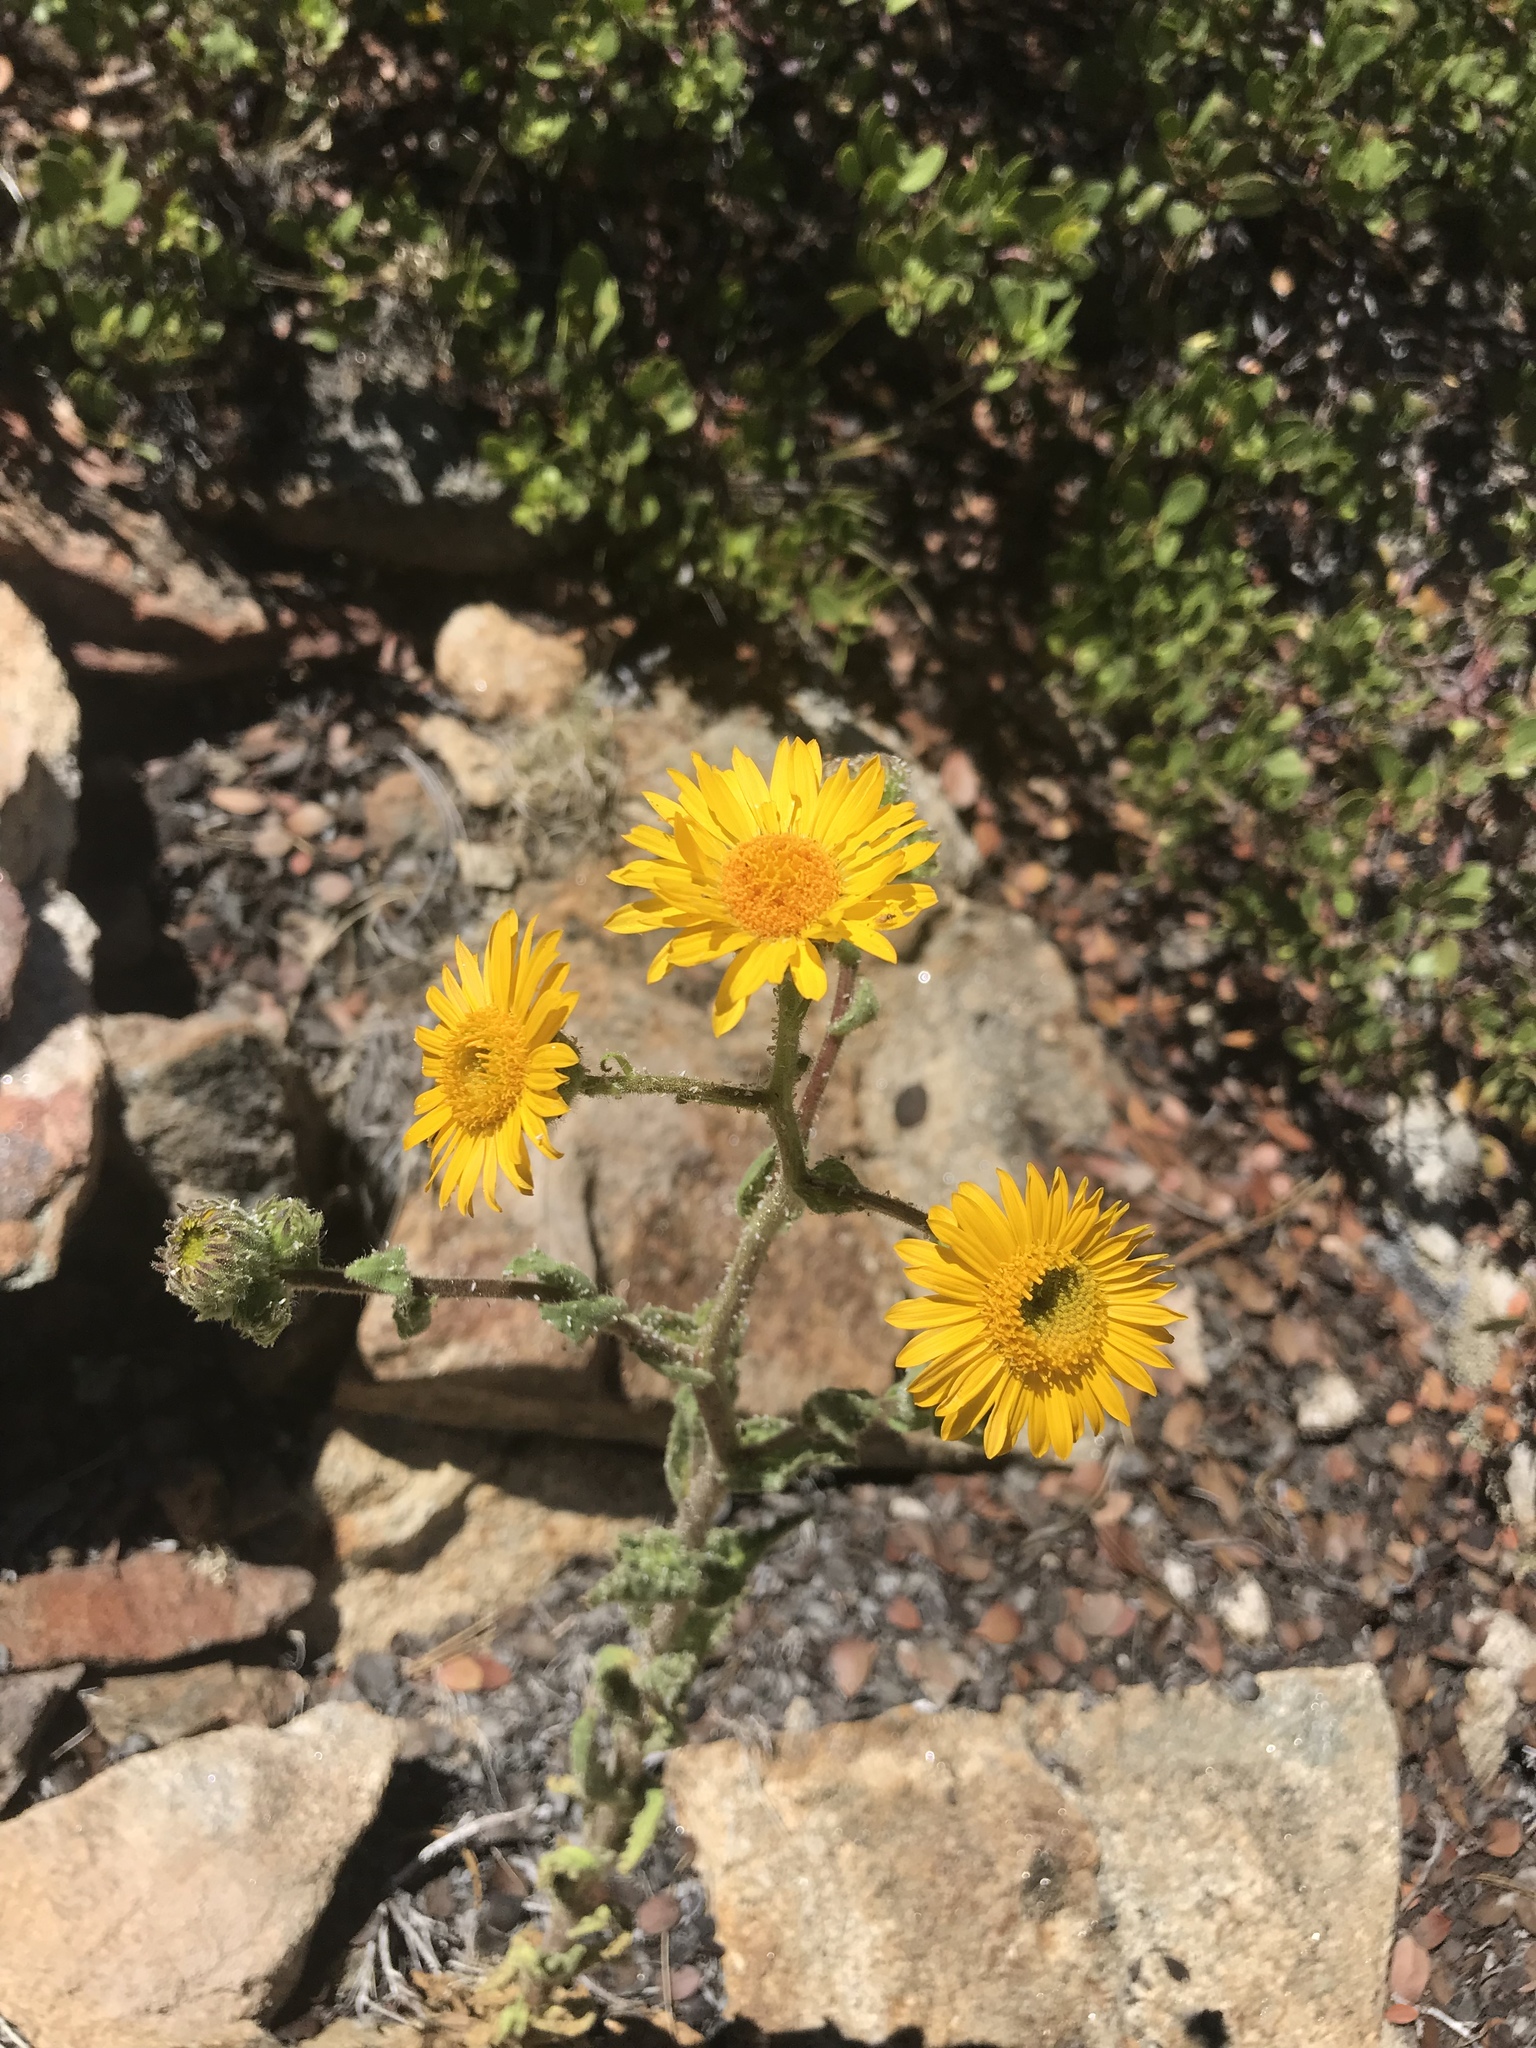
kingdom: Plantae
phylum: Tracheophyta
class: Magnoliopsida
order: Asterales
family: Asteraceae
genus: Hulsea
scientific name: Hulsea mexicana
